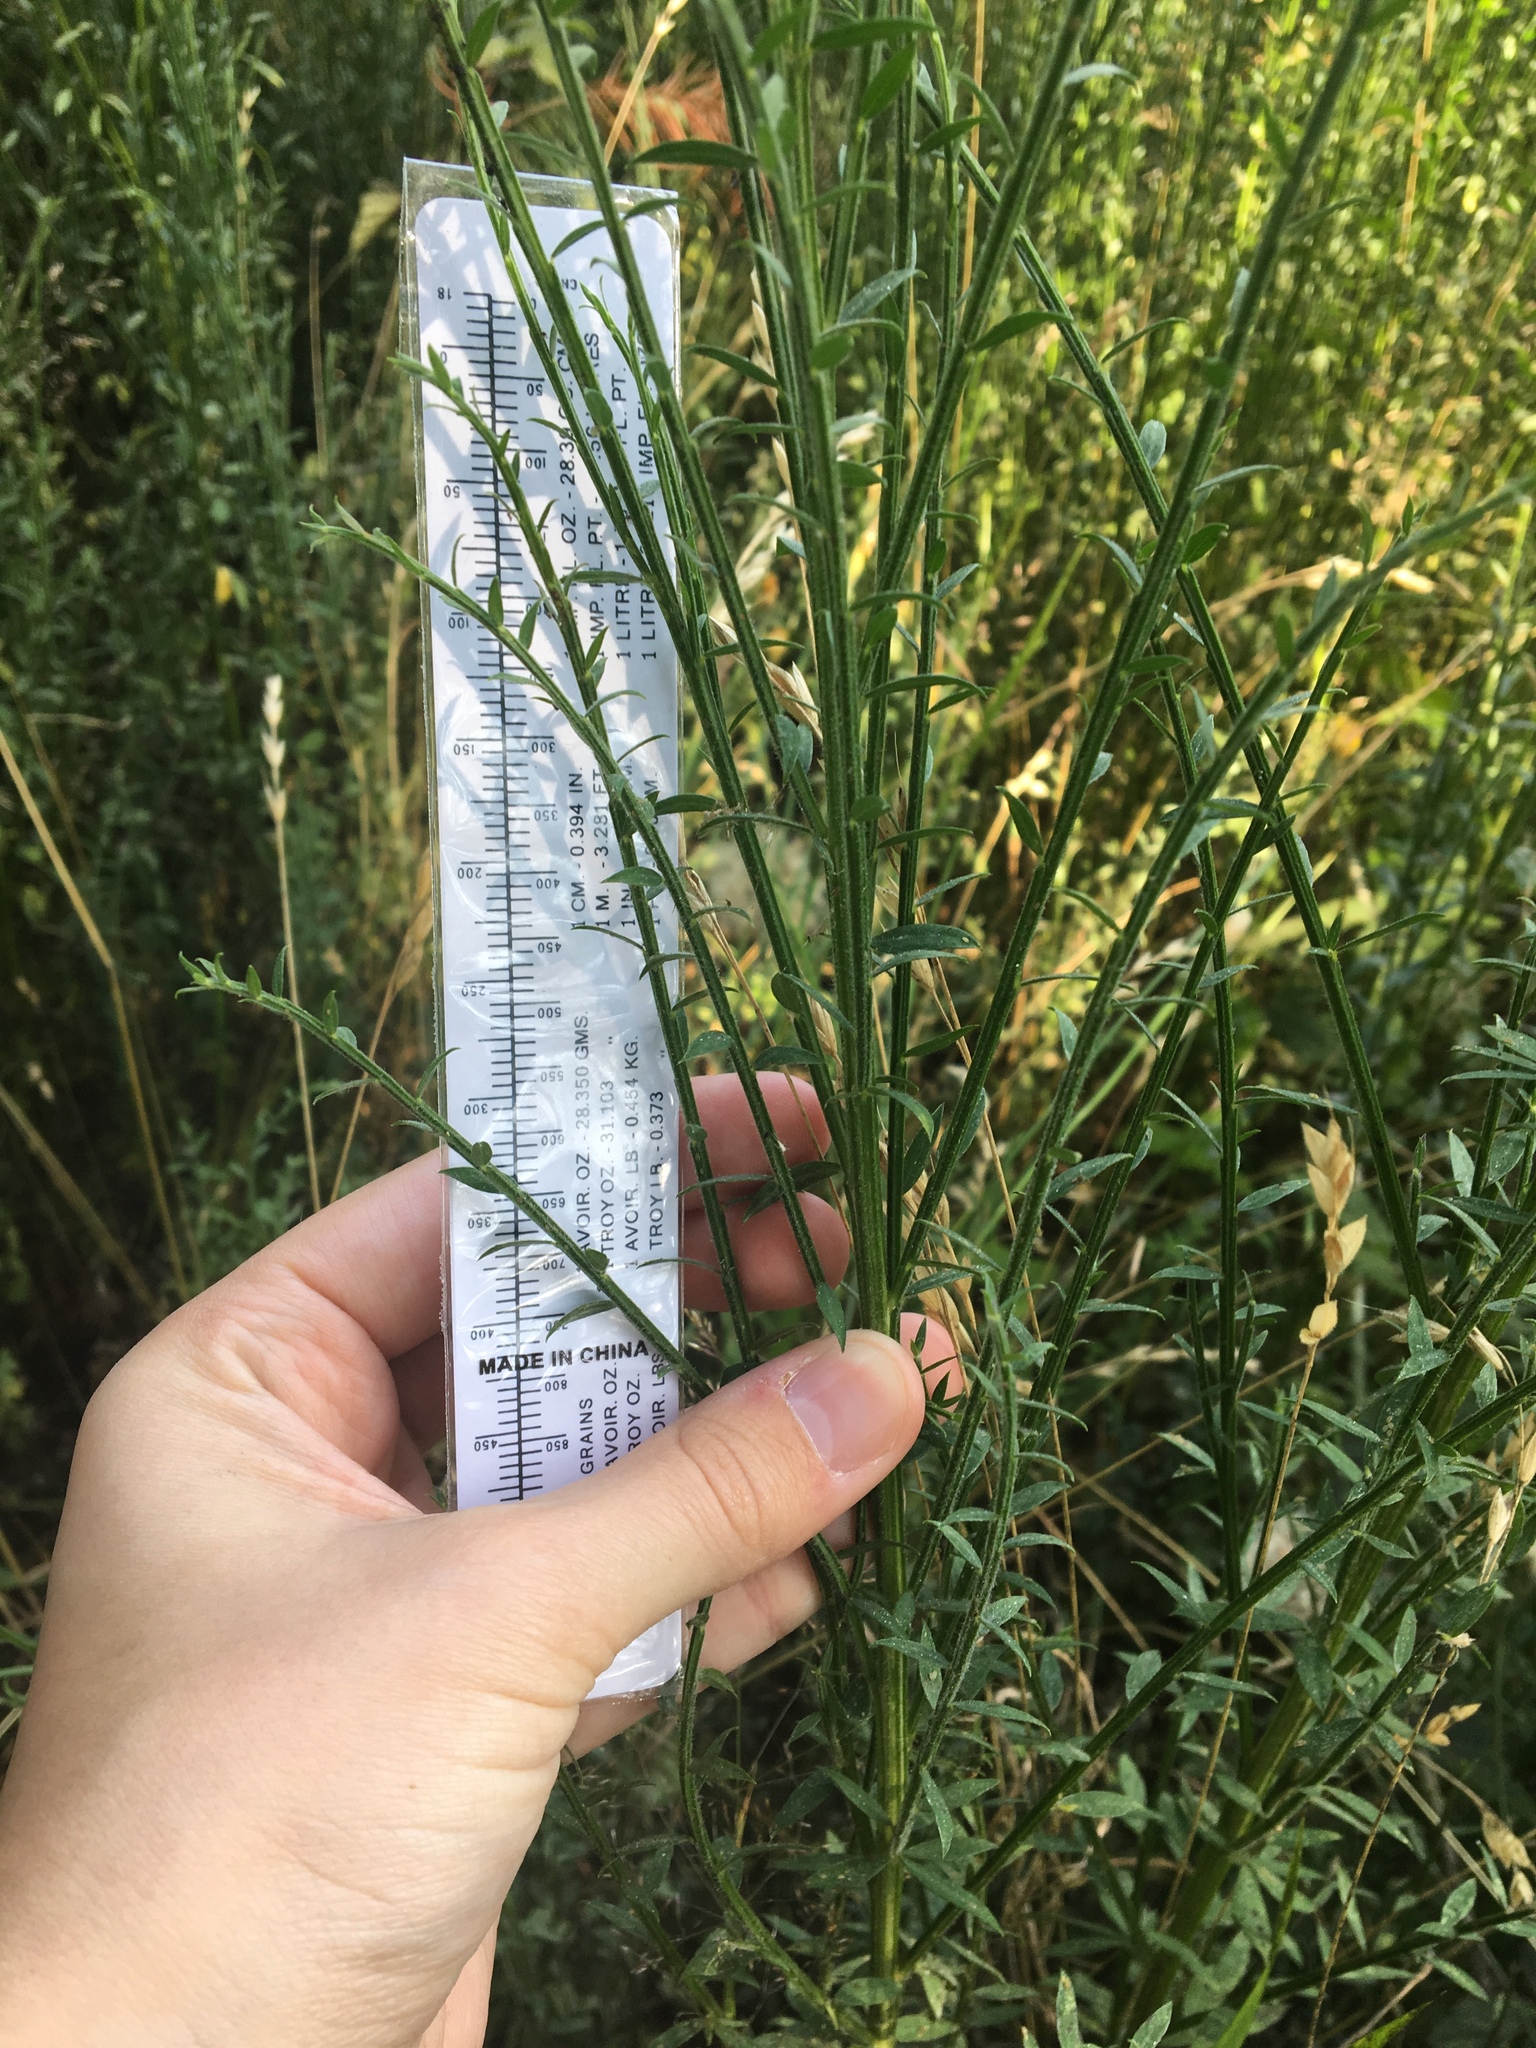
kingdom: Plantae
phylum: Tracheophyta
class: Magnoliopsida
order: Fabales
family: Fabaceae
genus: Cytisus
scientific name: Cytisus scoparius
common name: Scotch broom
